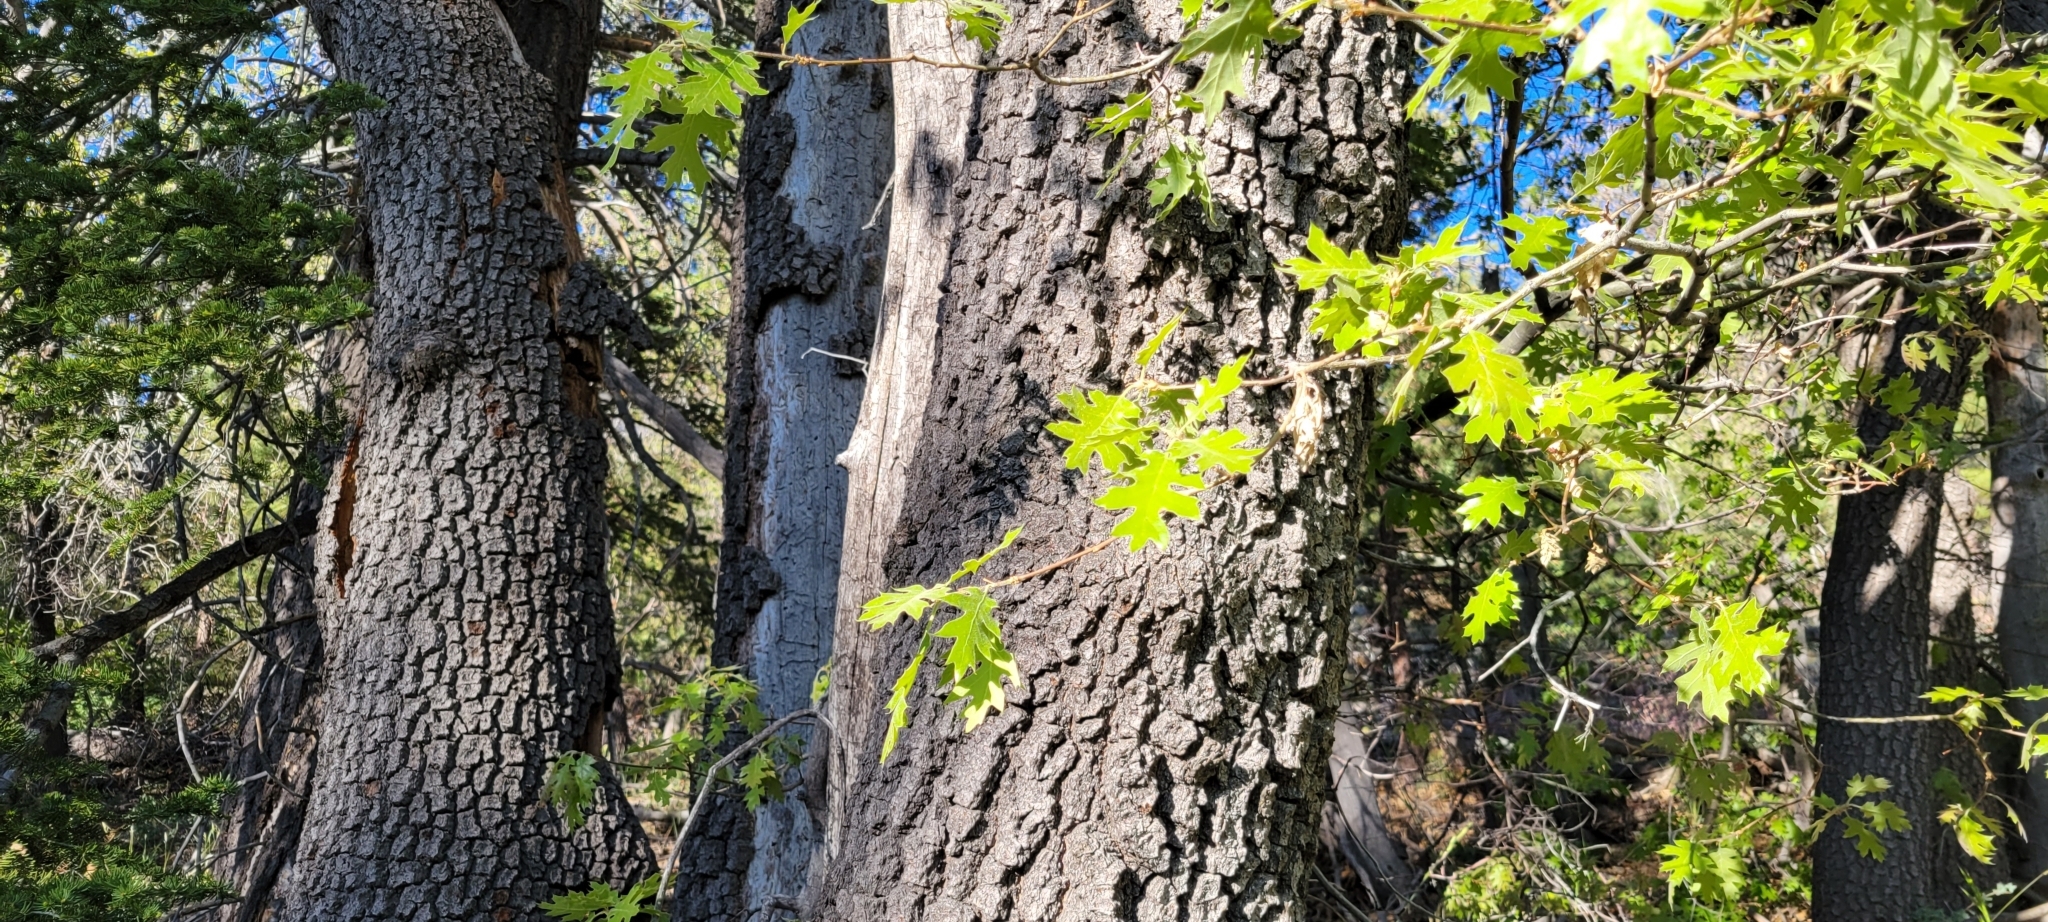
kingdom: Plantae
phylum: Tracheophyta
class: Magnoliopsida
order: Fagales
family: Fagaceae
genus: Quercus
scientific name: Quercus kelloggii
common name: California black oak
